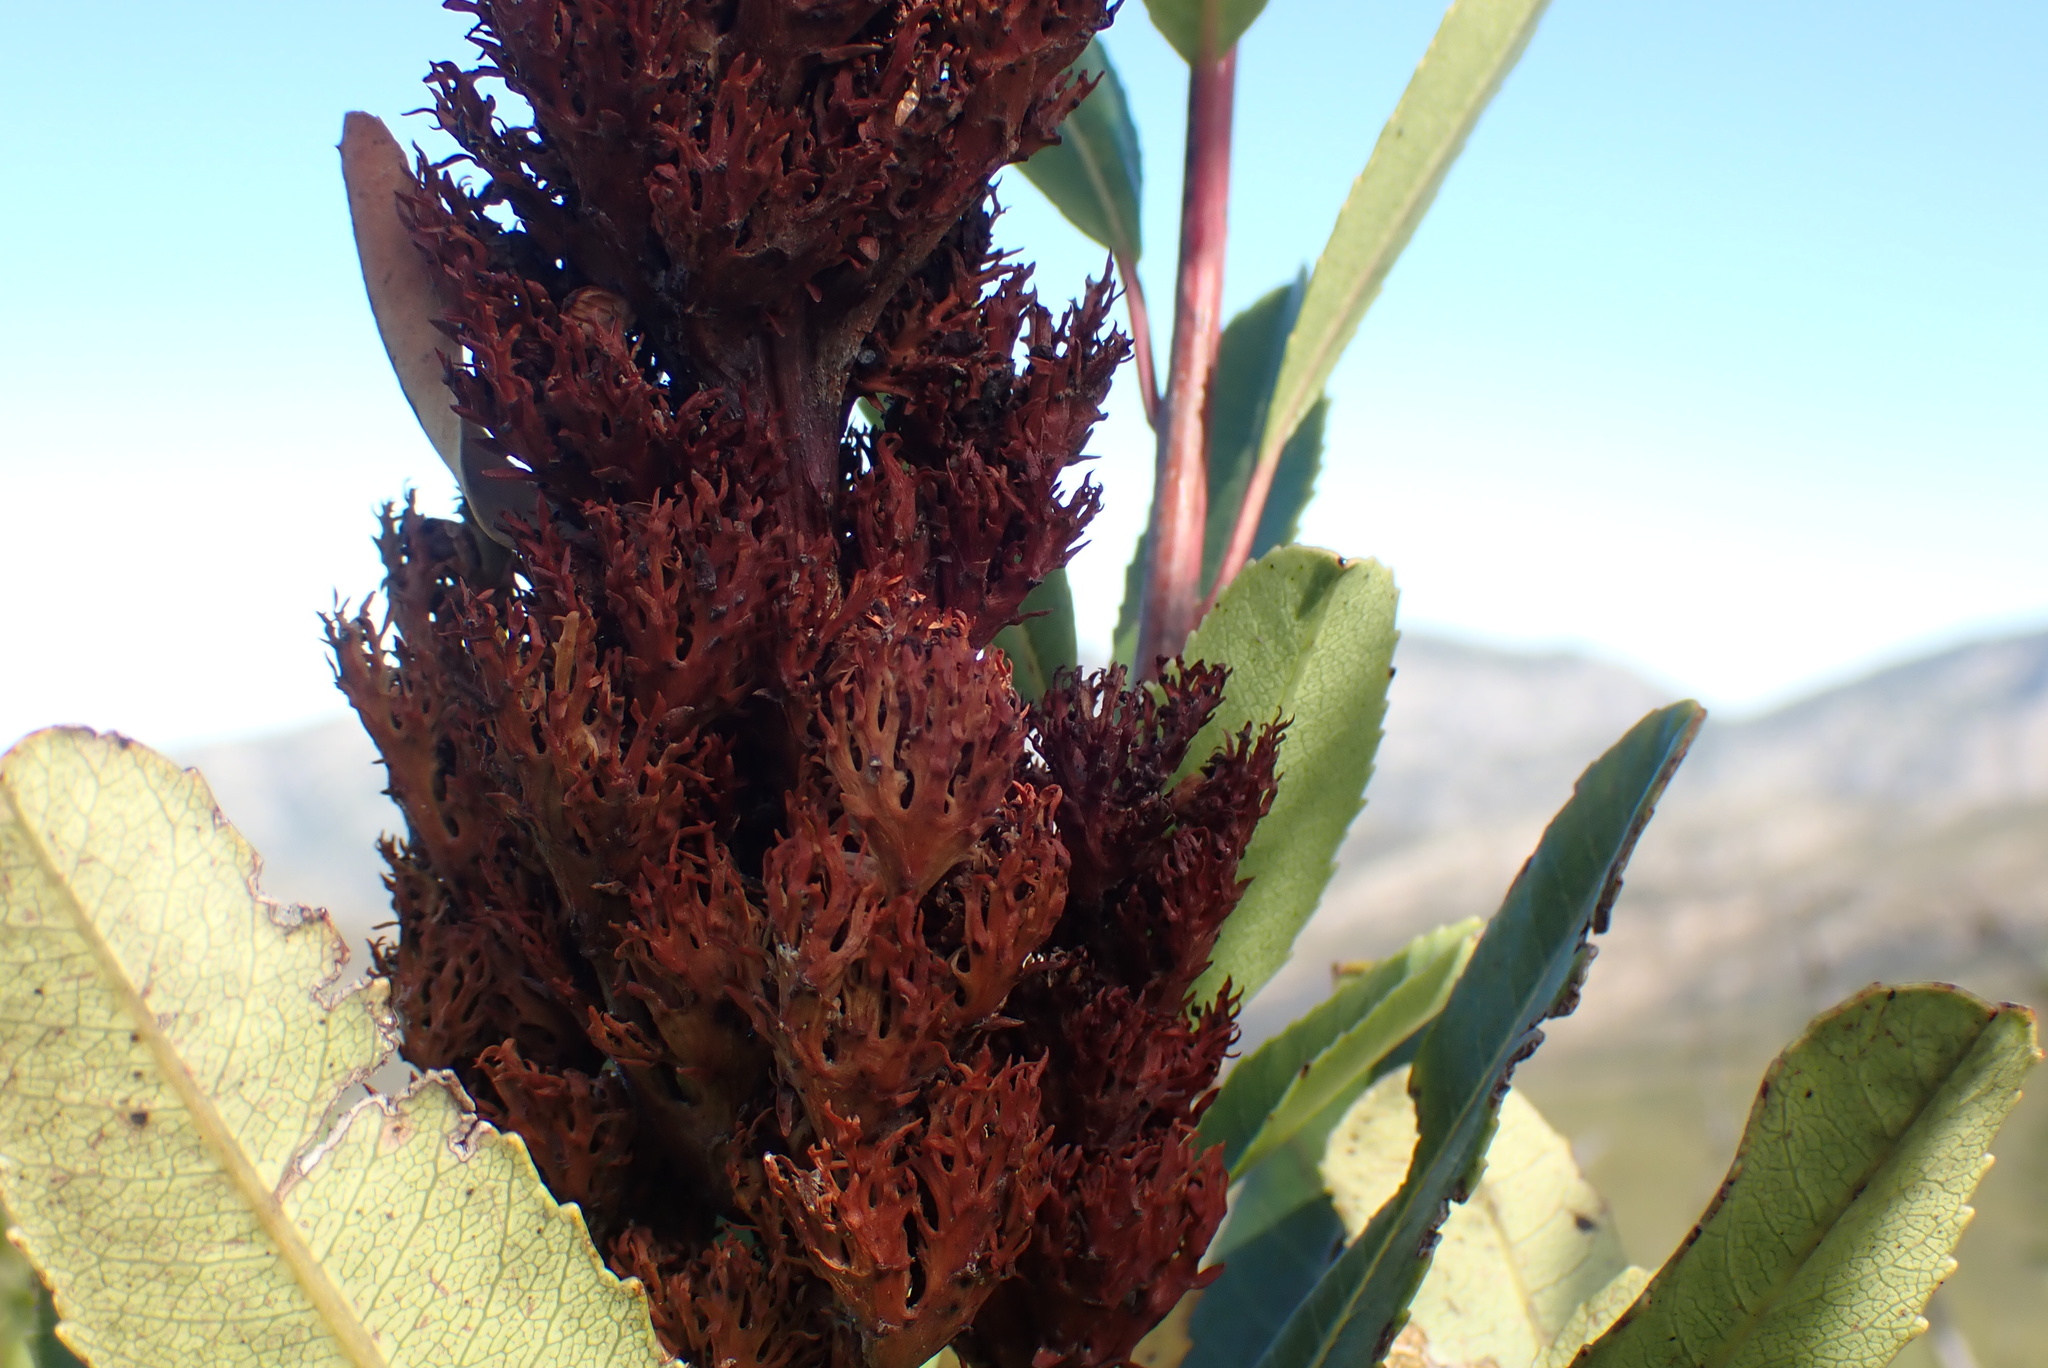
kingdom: Plantae
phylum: Tracheophyta
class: Magnoliopsida
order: Sapindales
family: Anacardiaceae
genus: Laurophyllus
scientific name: Laurophyllus capensis
